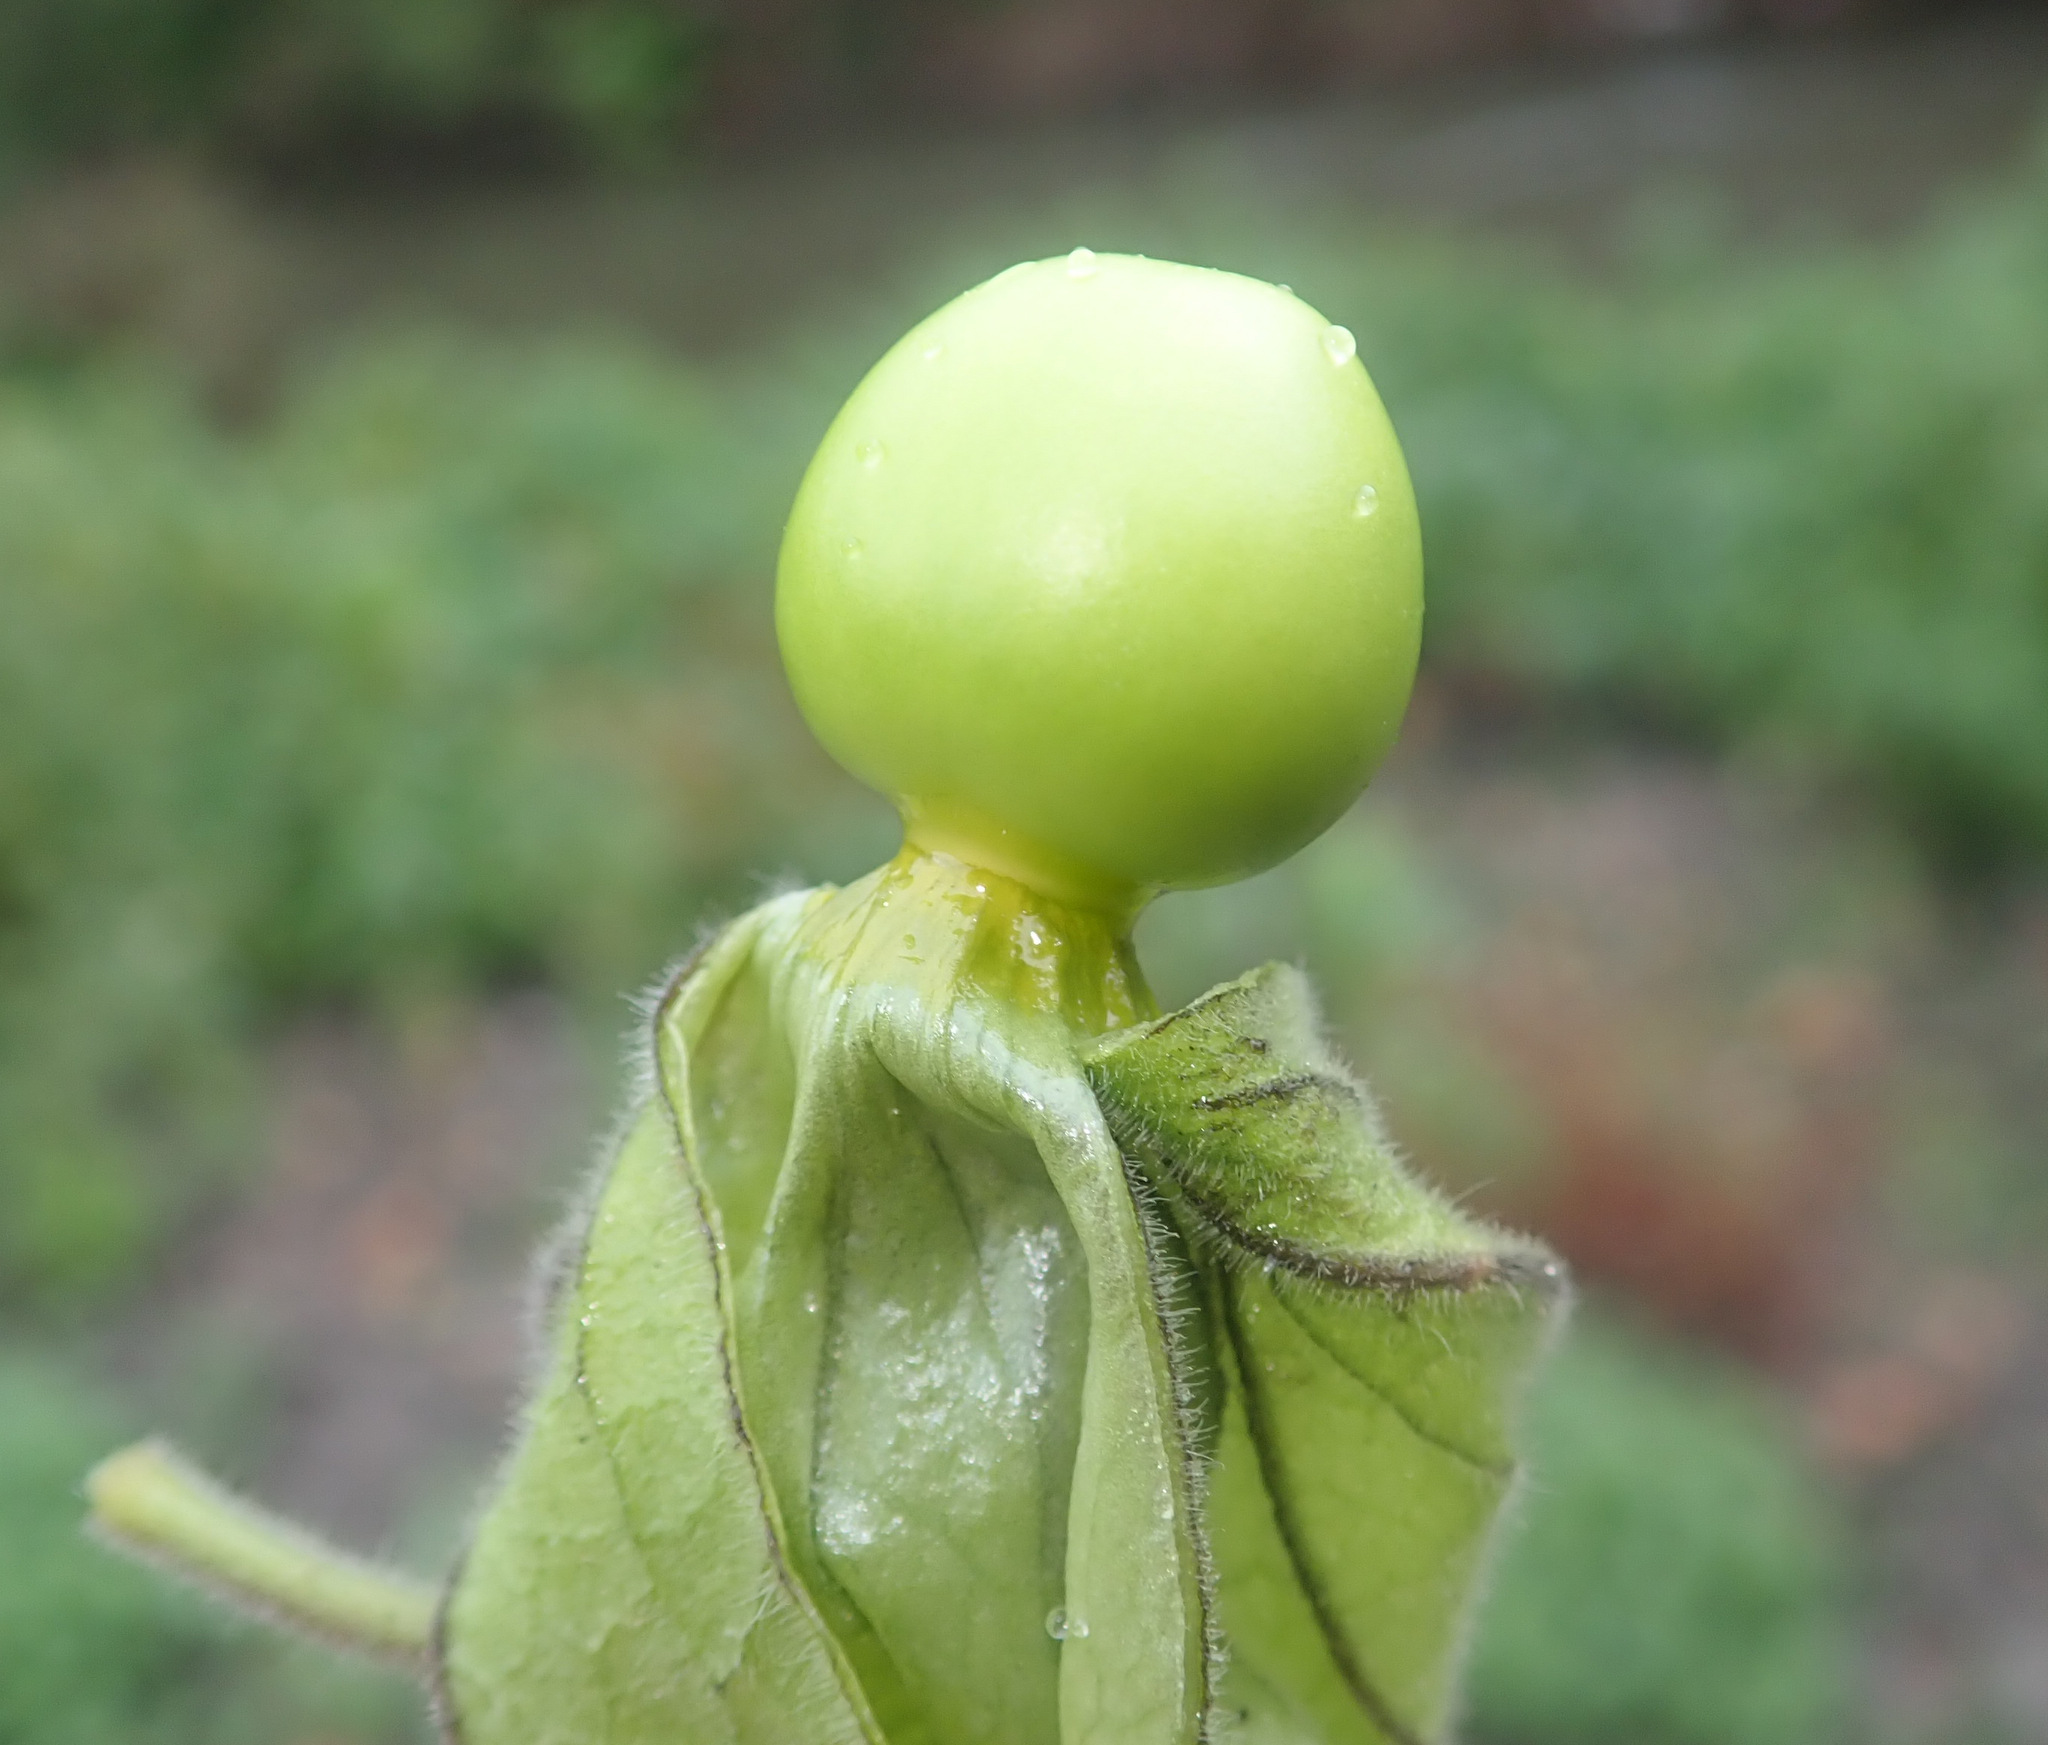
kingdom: Plantae
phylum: Tracheophyta
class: Magnoliopsida
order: Solanales
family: Solanaceae
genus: Physalis
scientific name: Physalis peruviana
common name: Cape-gooseberry
